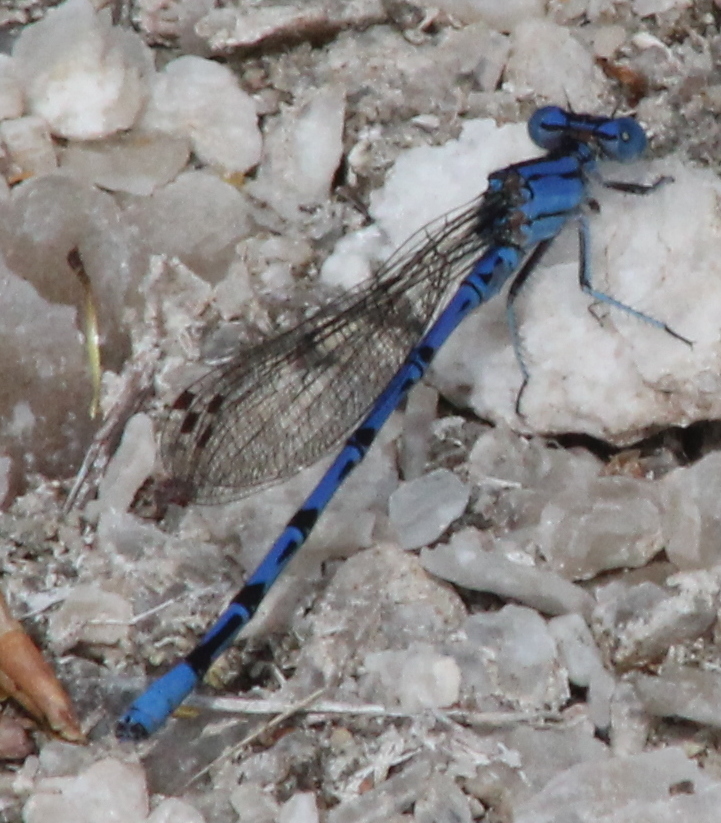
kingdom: Animalia
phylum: Arthropoda
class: Insecta
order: Odonata
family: Coenagrionidae
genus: Argia
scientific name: Argia funebris
